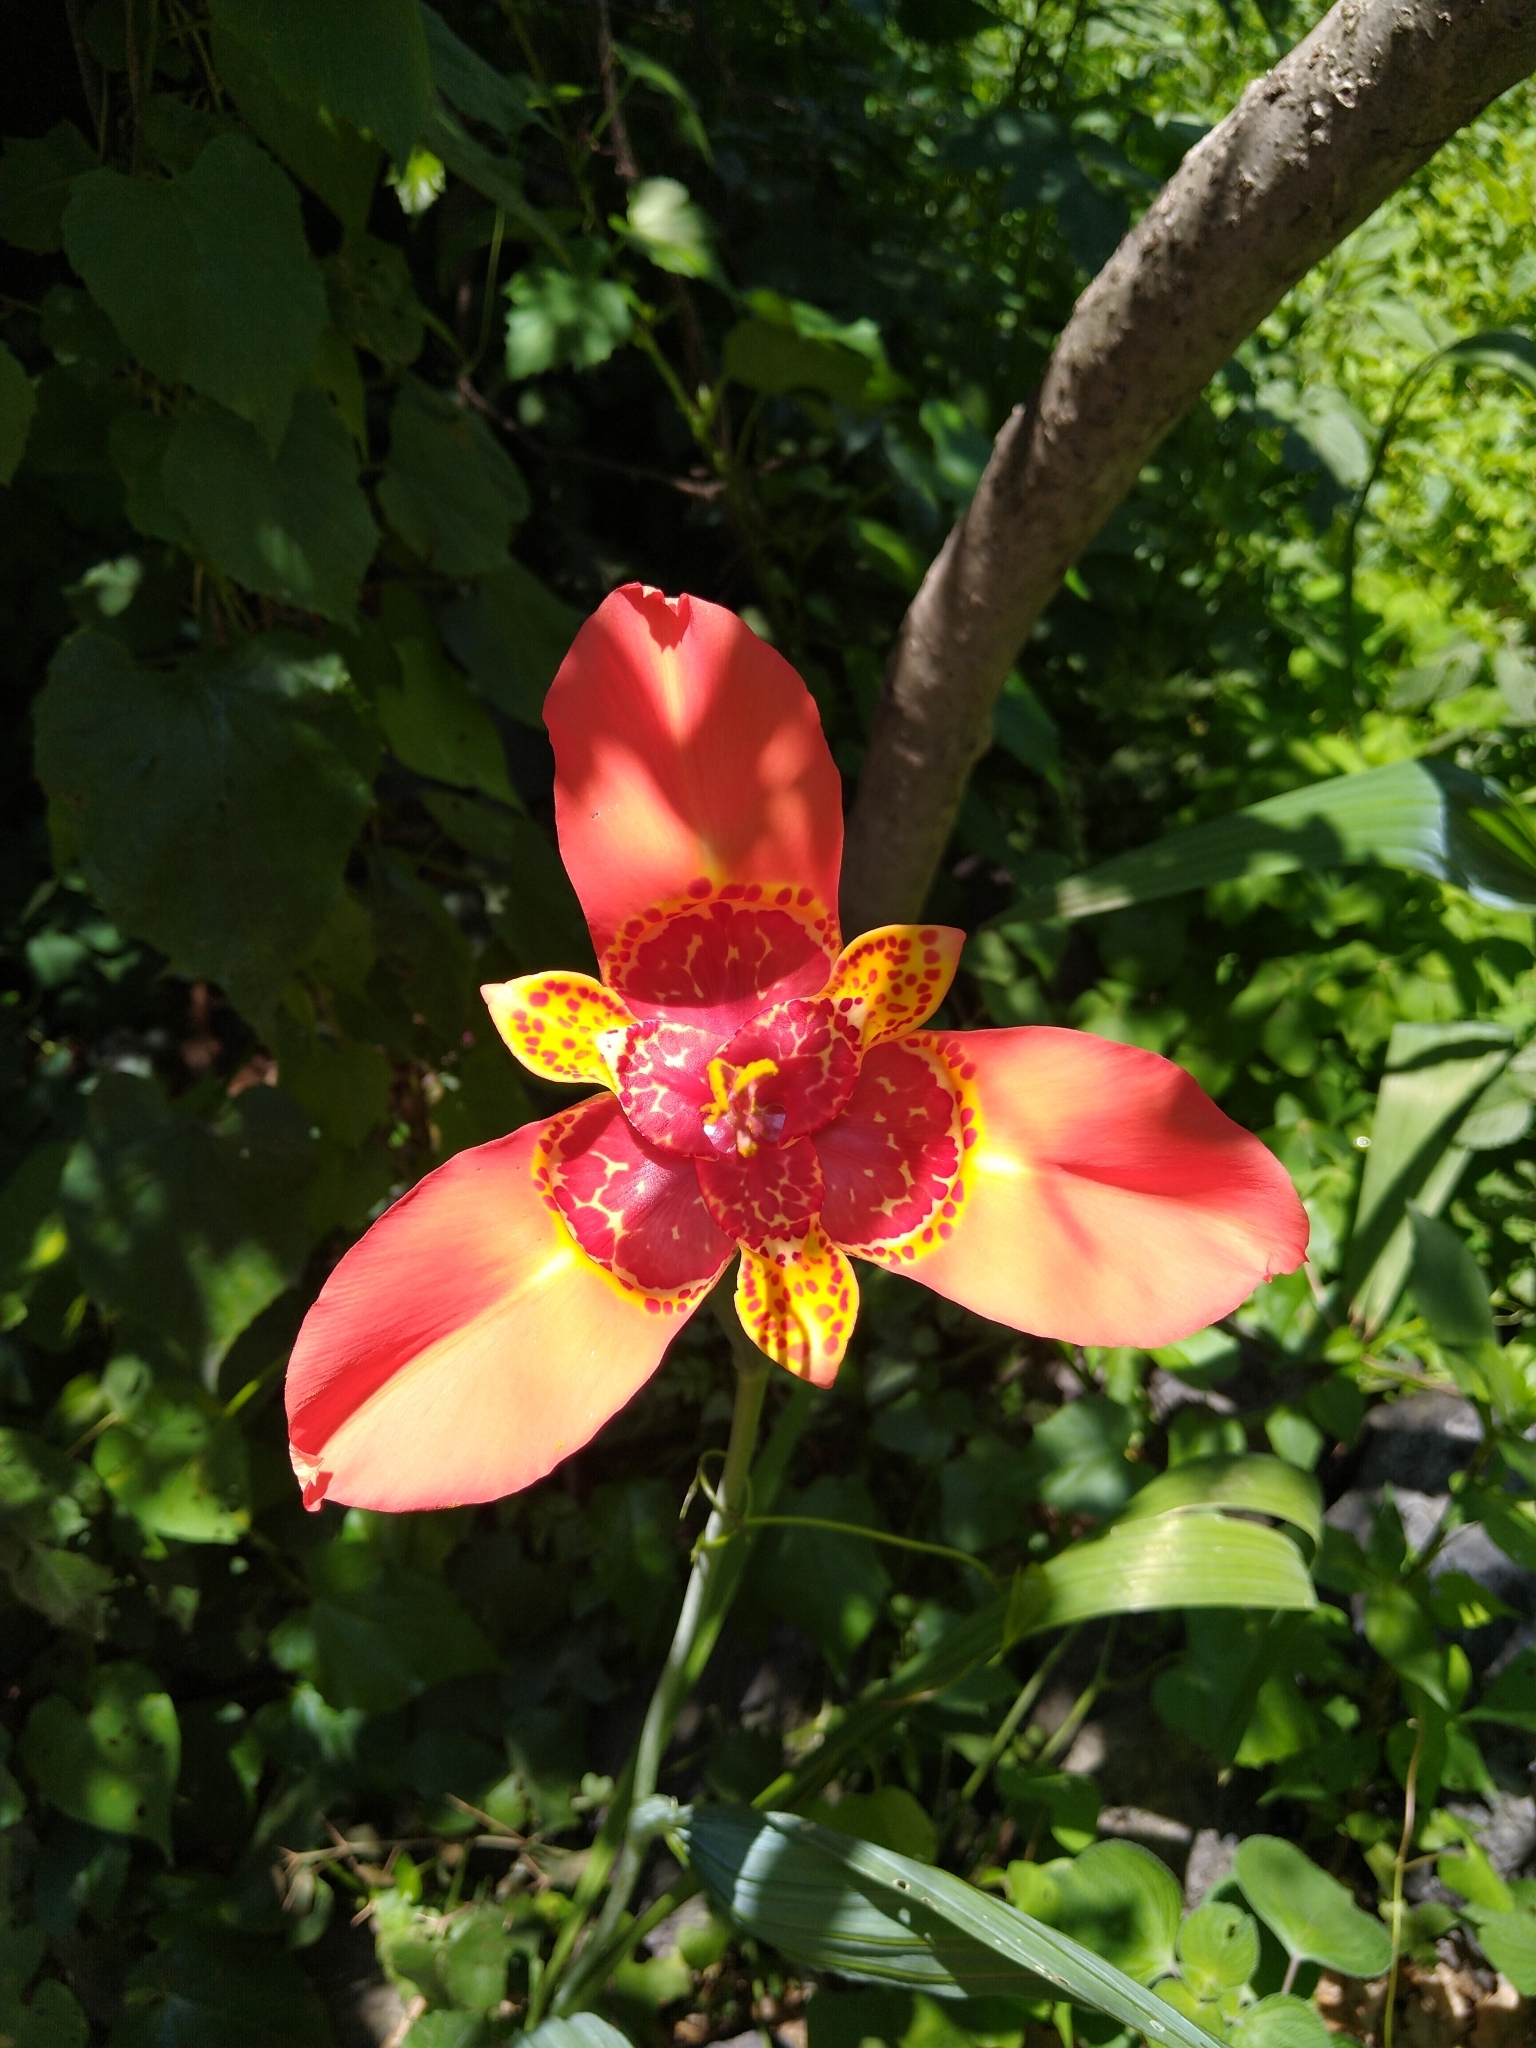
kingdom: Plantae
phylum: Tracheophyta
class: Liliopsida
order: Asparagales
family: Iridaceae
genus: Tigridia
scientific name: Tigridia pavonia
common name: Peacock-flower
